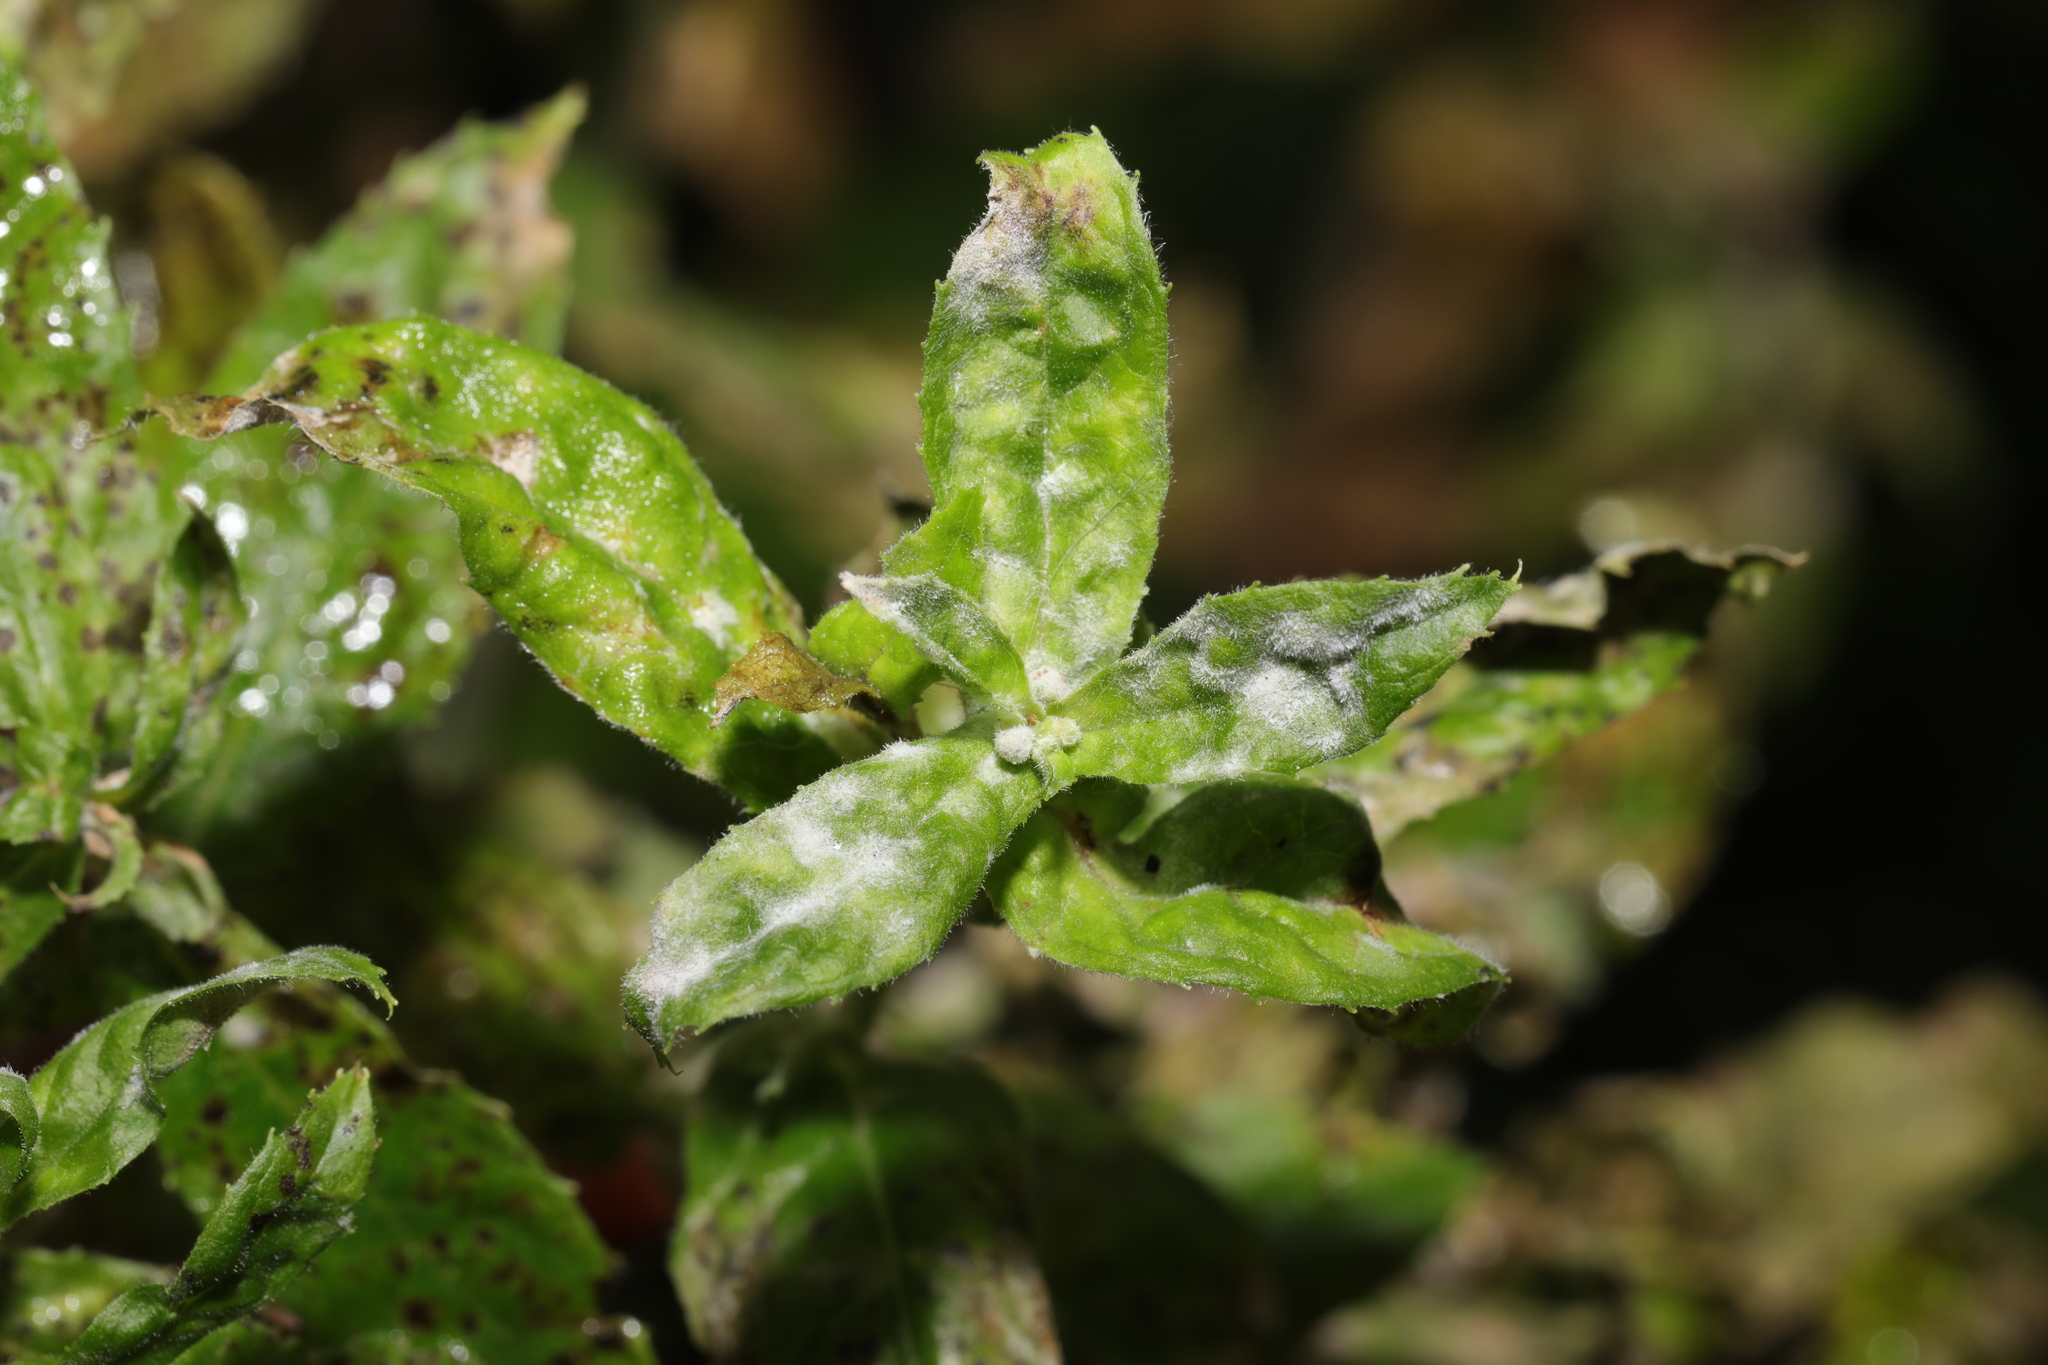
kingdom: Fungi
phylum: Ascomycota
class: Leotiomycetes
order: Helotiales
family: Erysiphaceae
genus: Podosphaera
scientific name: Podosphaera epilobii
